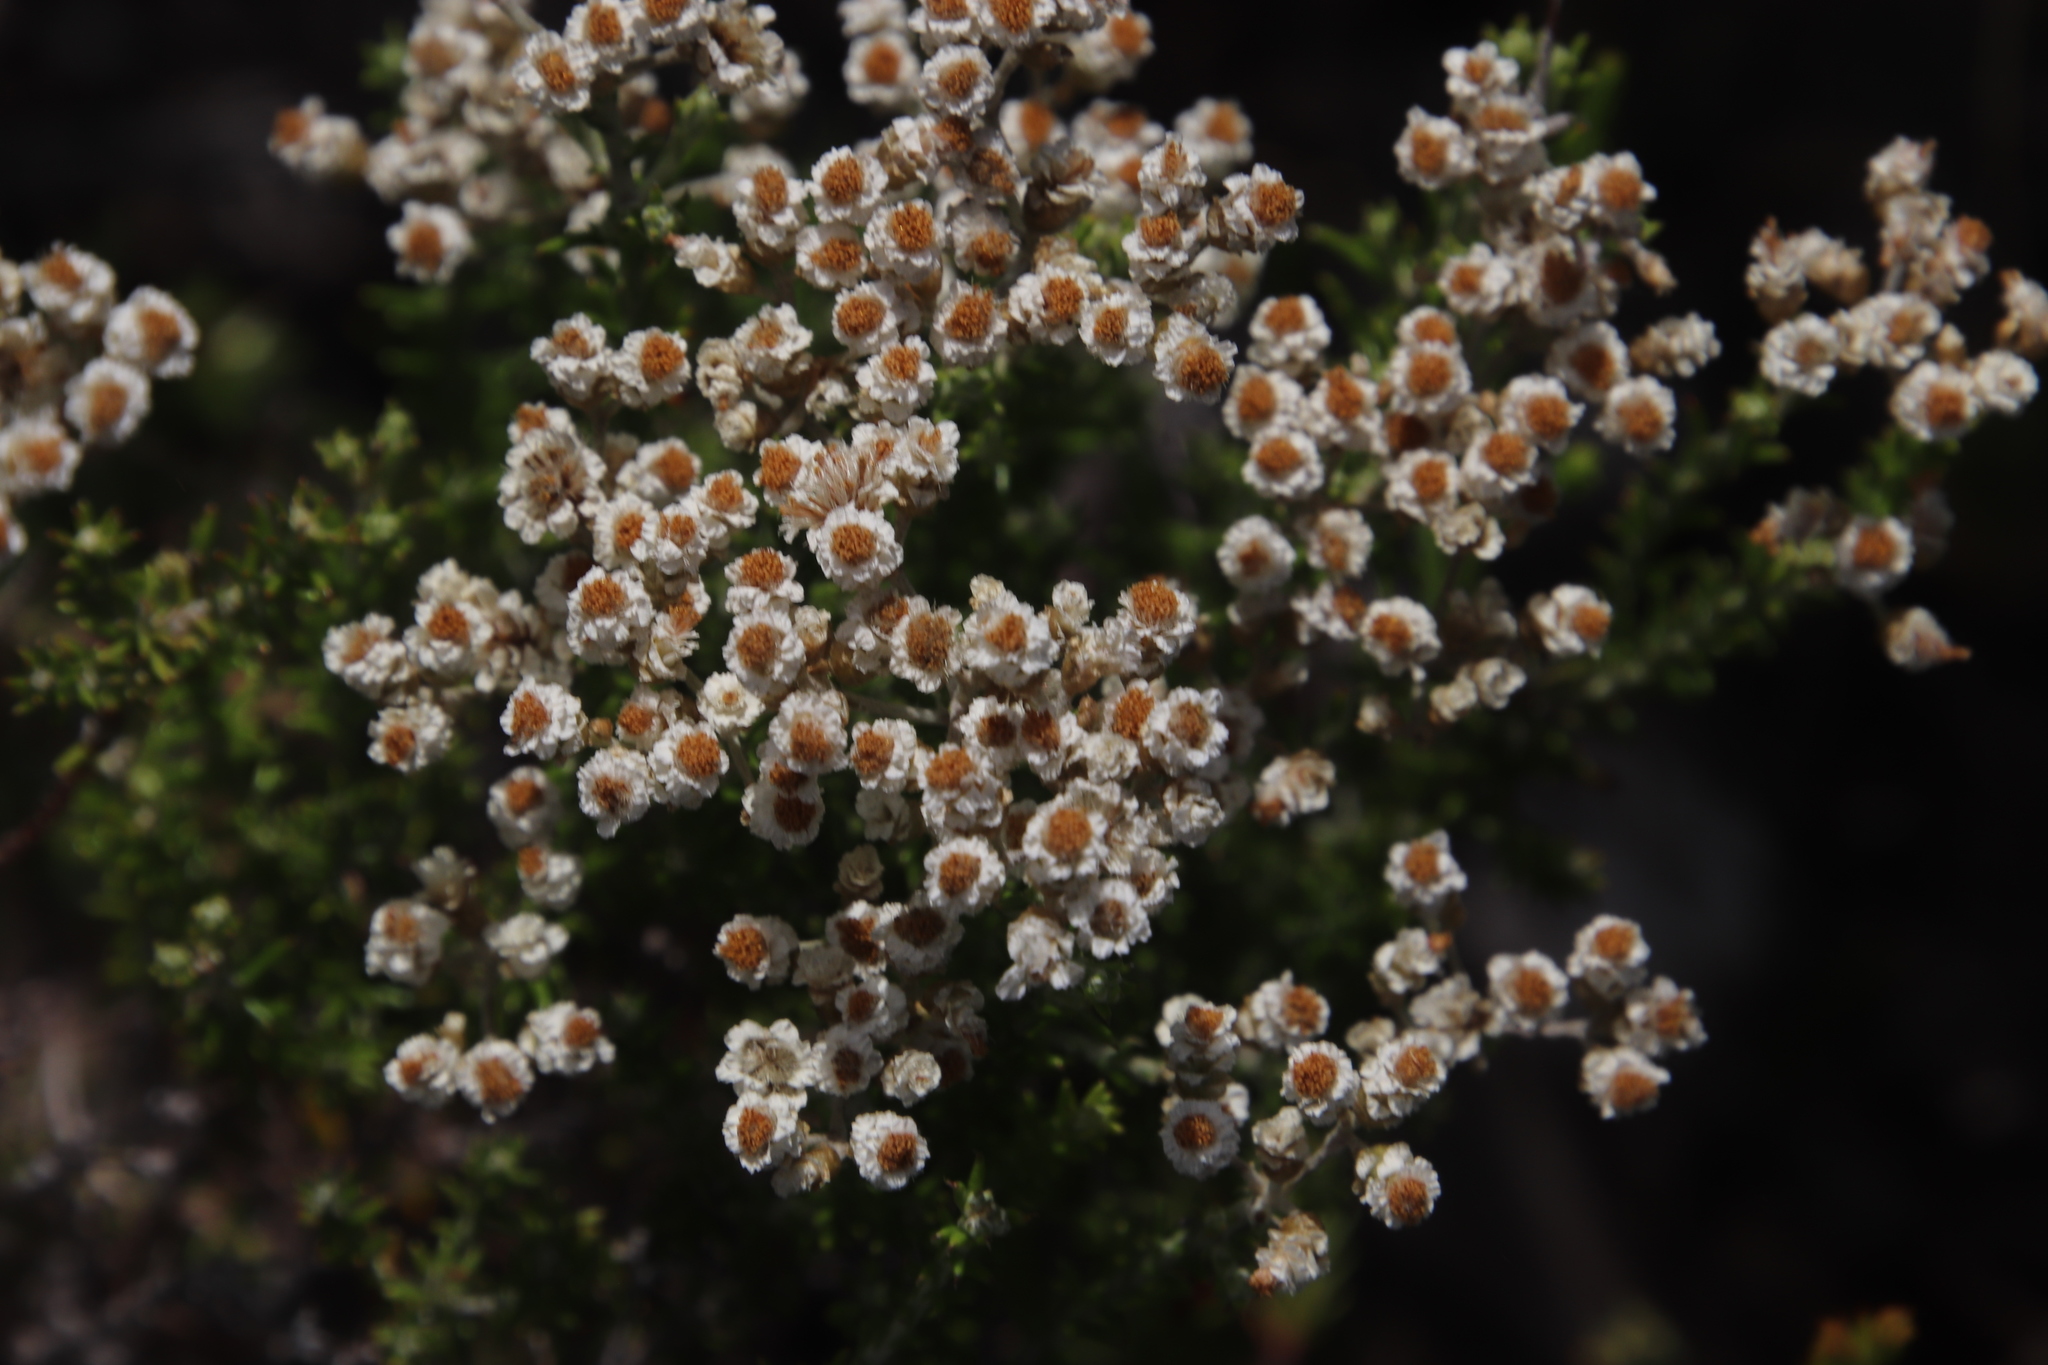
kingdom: Plantae
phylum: Tracheophyta
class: Magnoliopsida
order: Asterales
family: Asteraceae
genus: Helichrysum
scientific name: Helichrysum teretifolium
